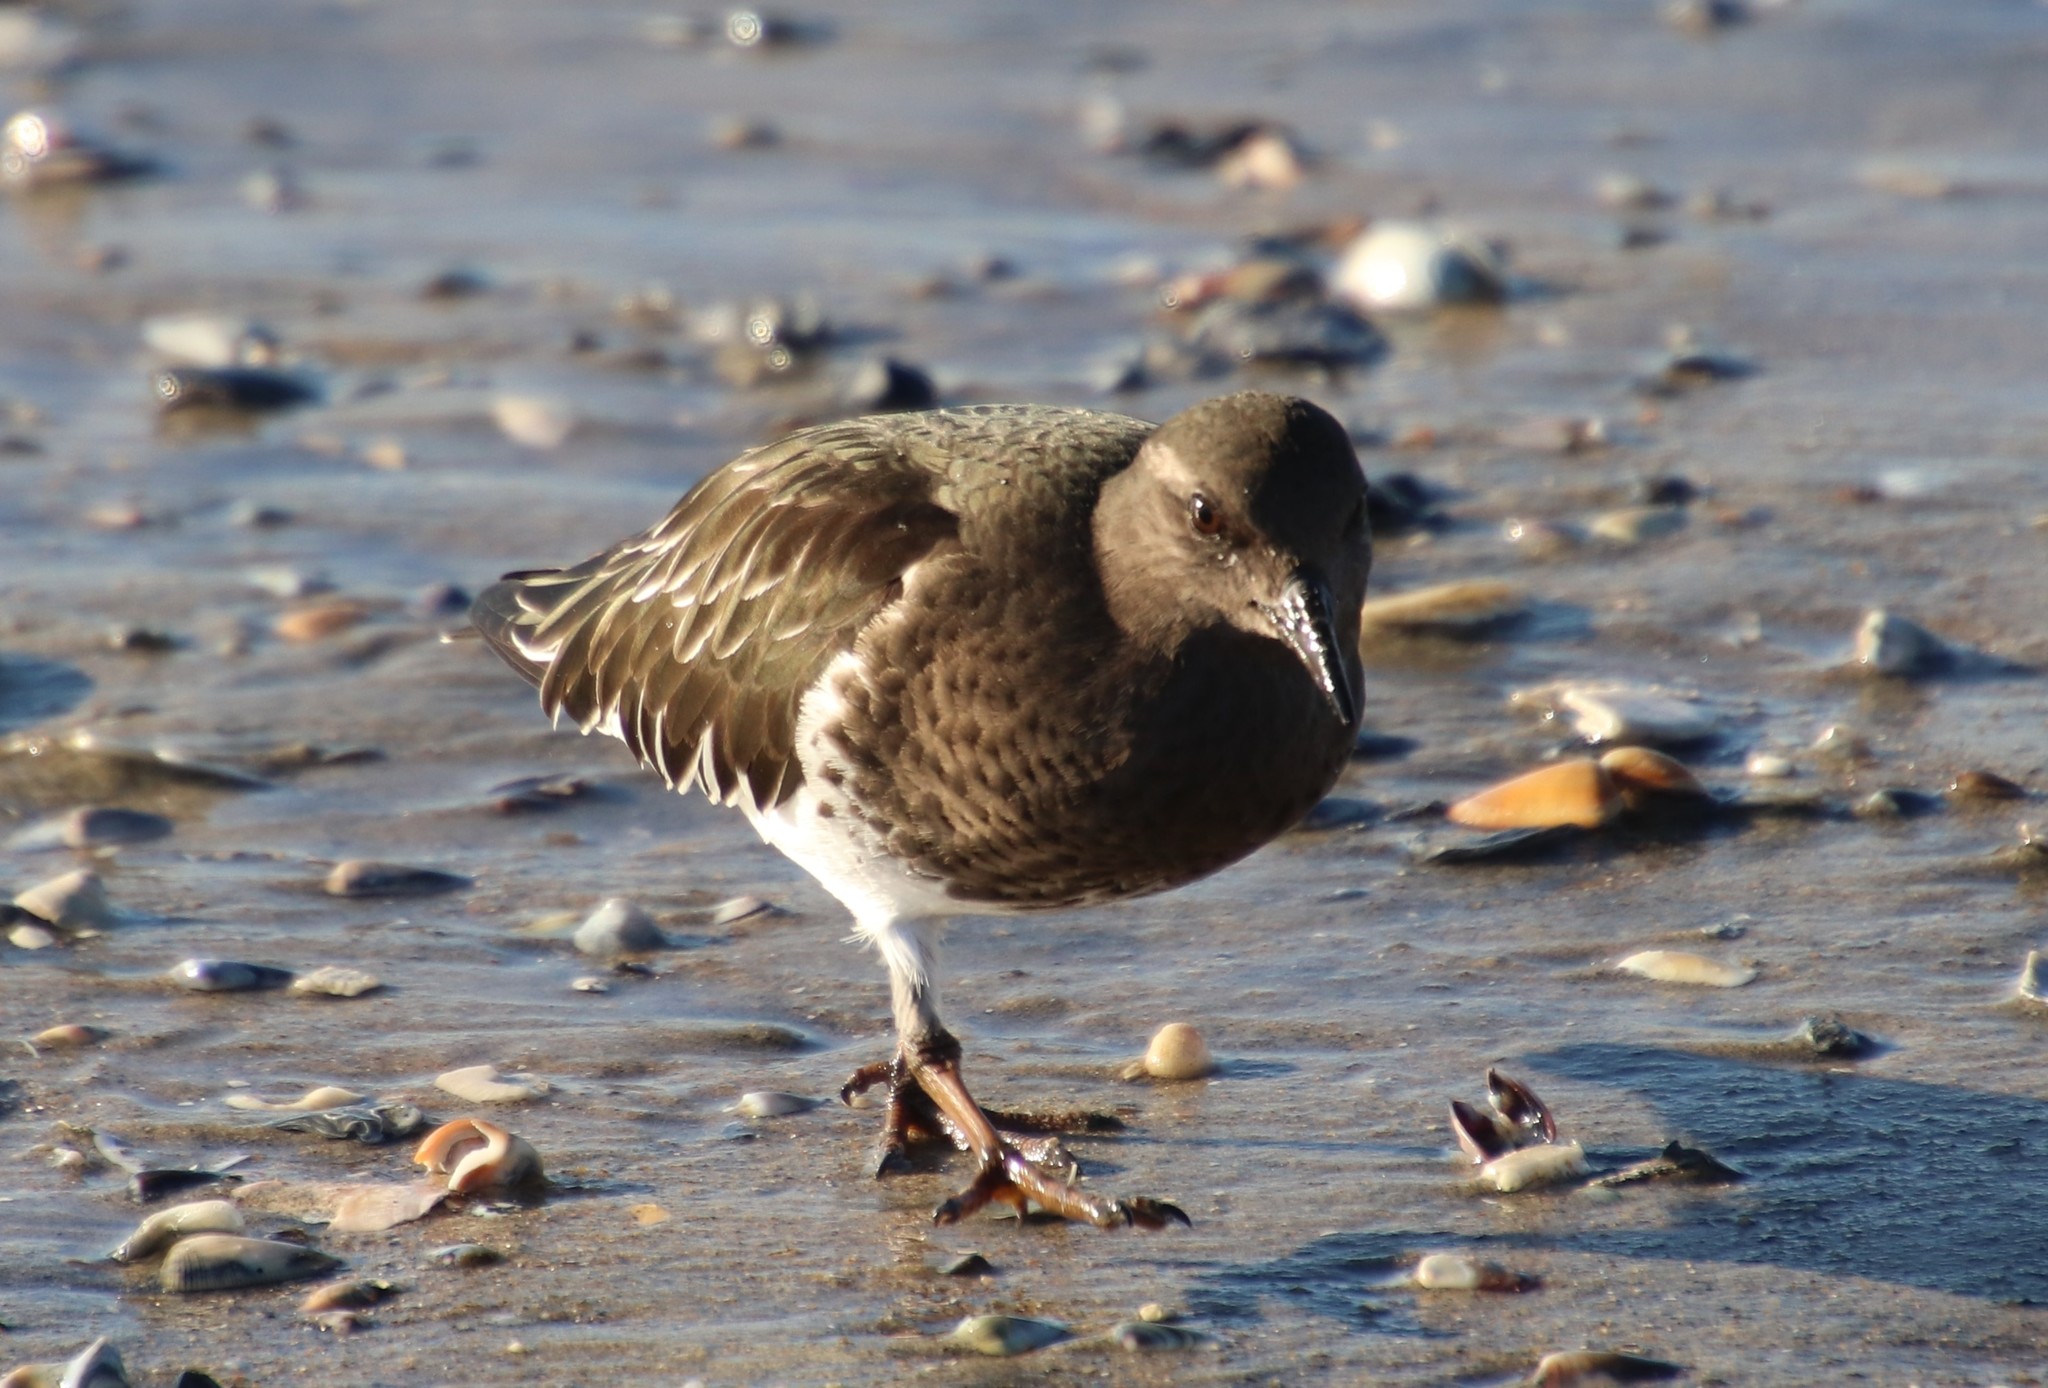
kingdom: Animalia
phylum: Chordata
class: Aves
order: Charadriiformes
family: Scolopacidae
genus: Arenaria
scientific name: Arenaria melanocephala
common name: Black turnstone
